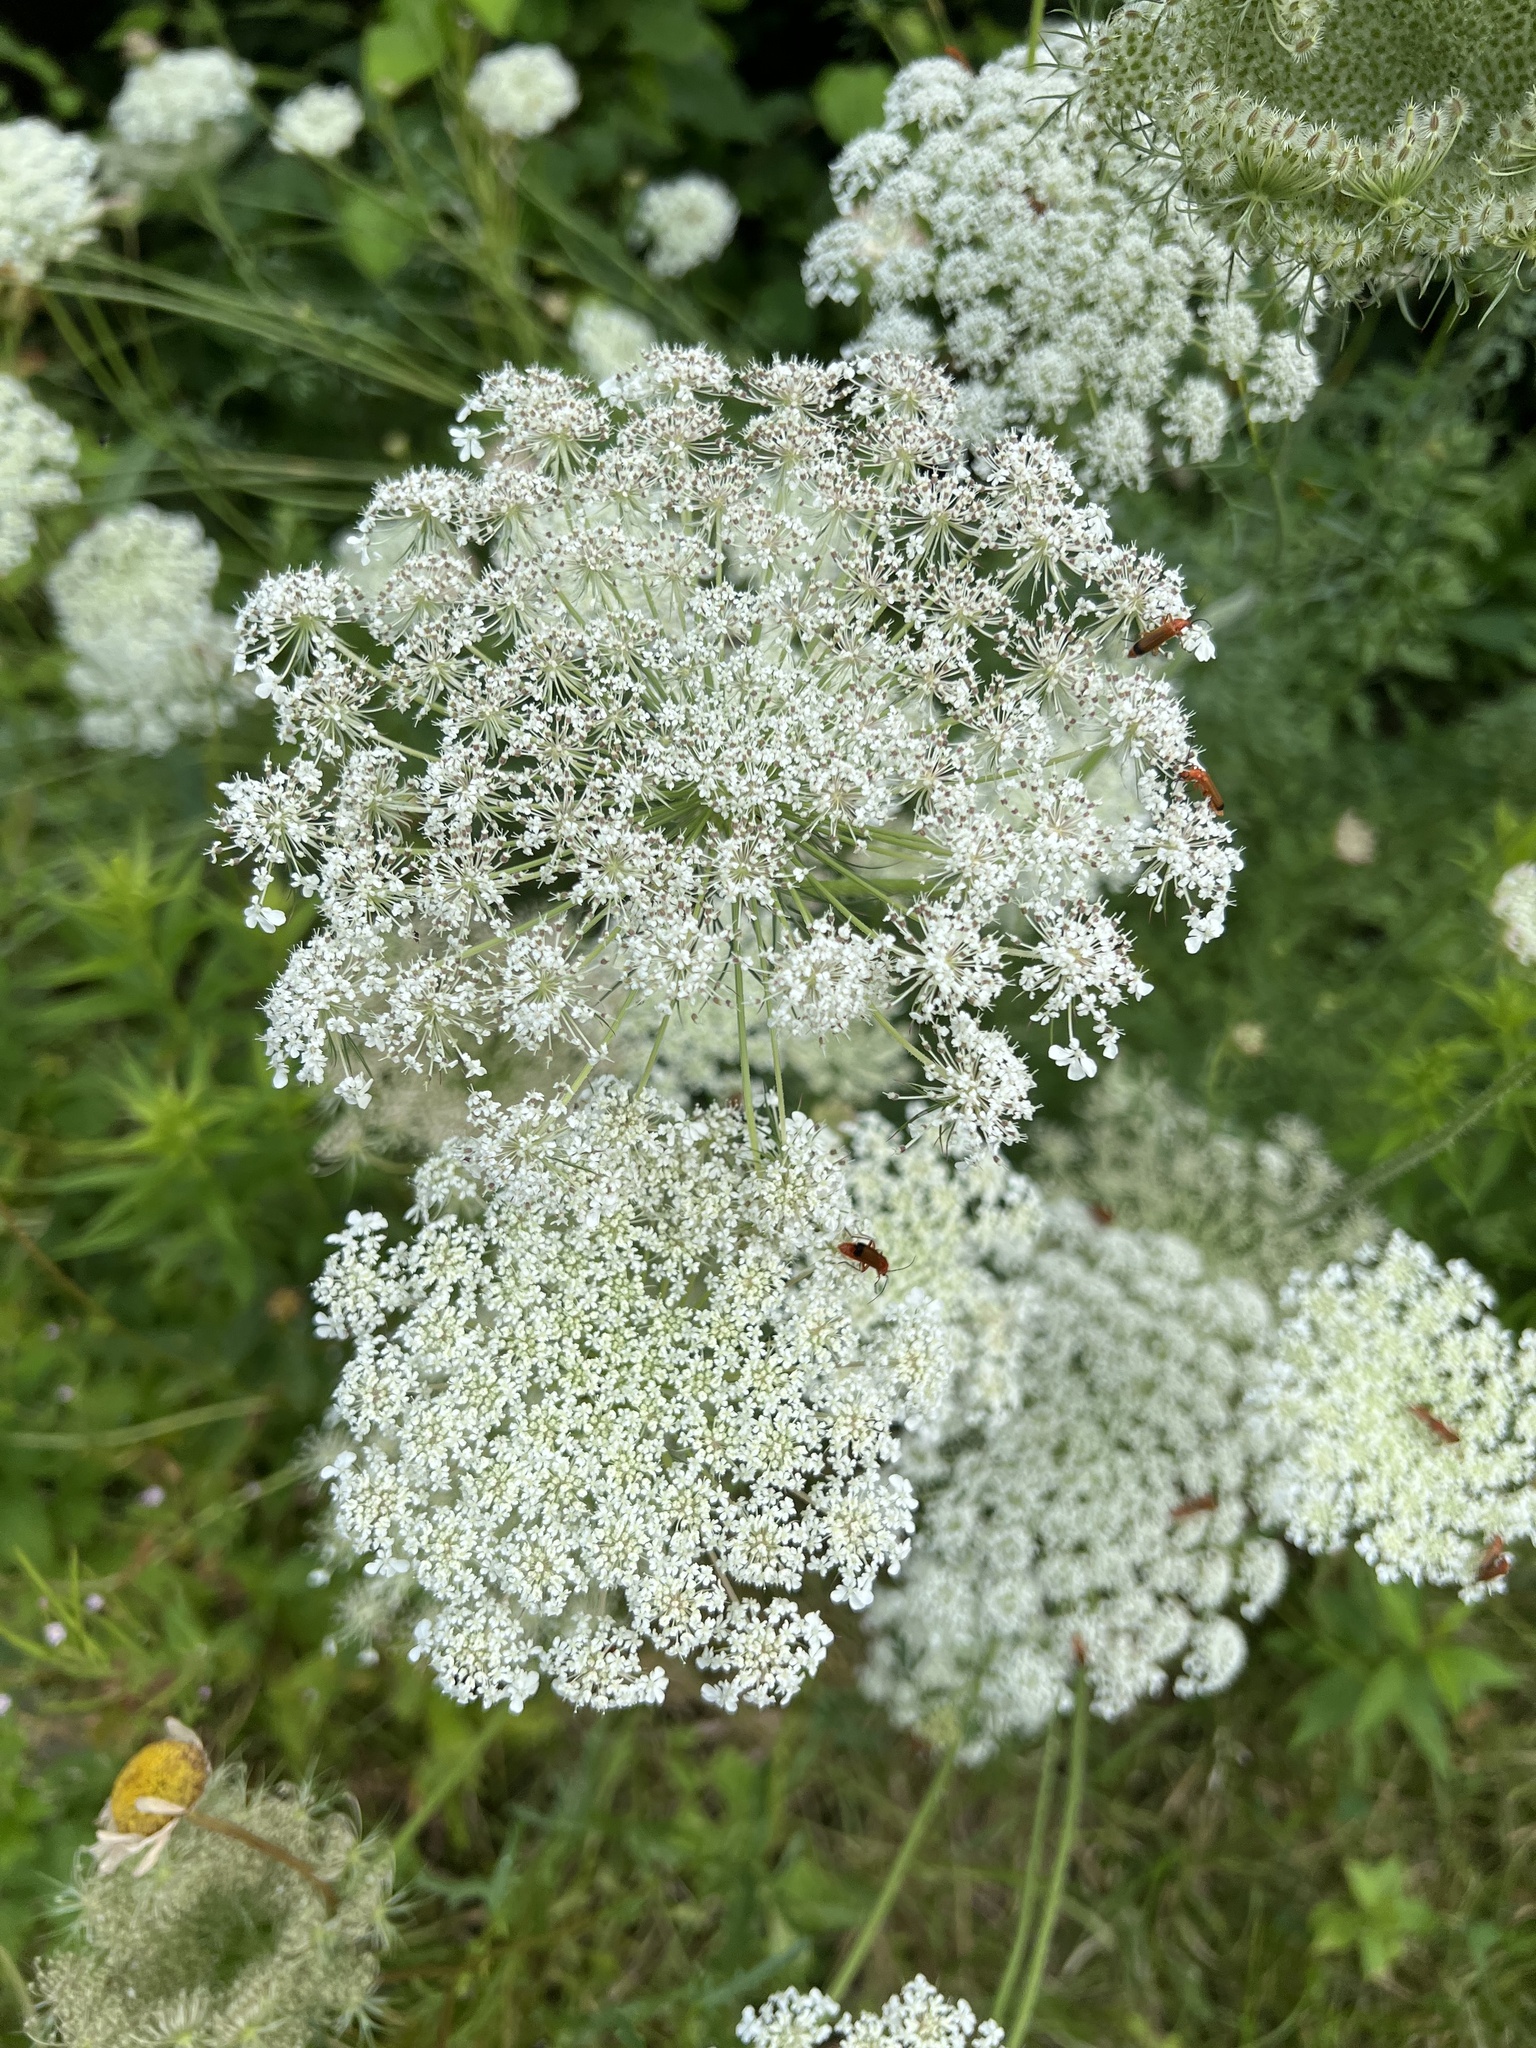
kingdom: Plantae
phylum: Tracheophyta
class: Magnoliopsida
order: Apiales
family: Apiaceae
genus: Daucus
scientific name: Daucus carota
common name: Wild carrot
